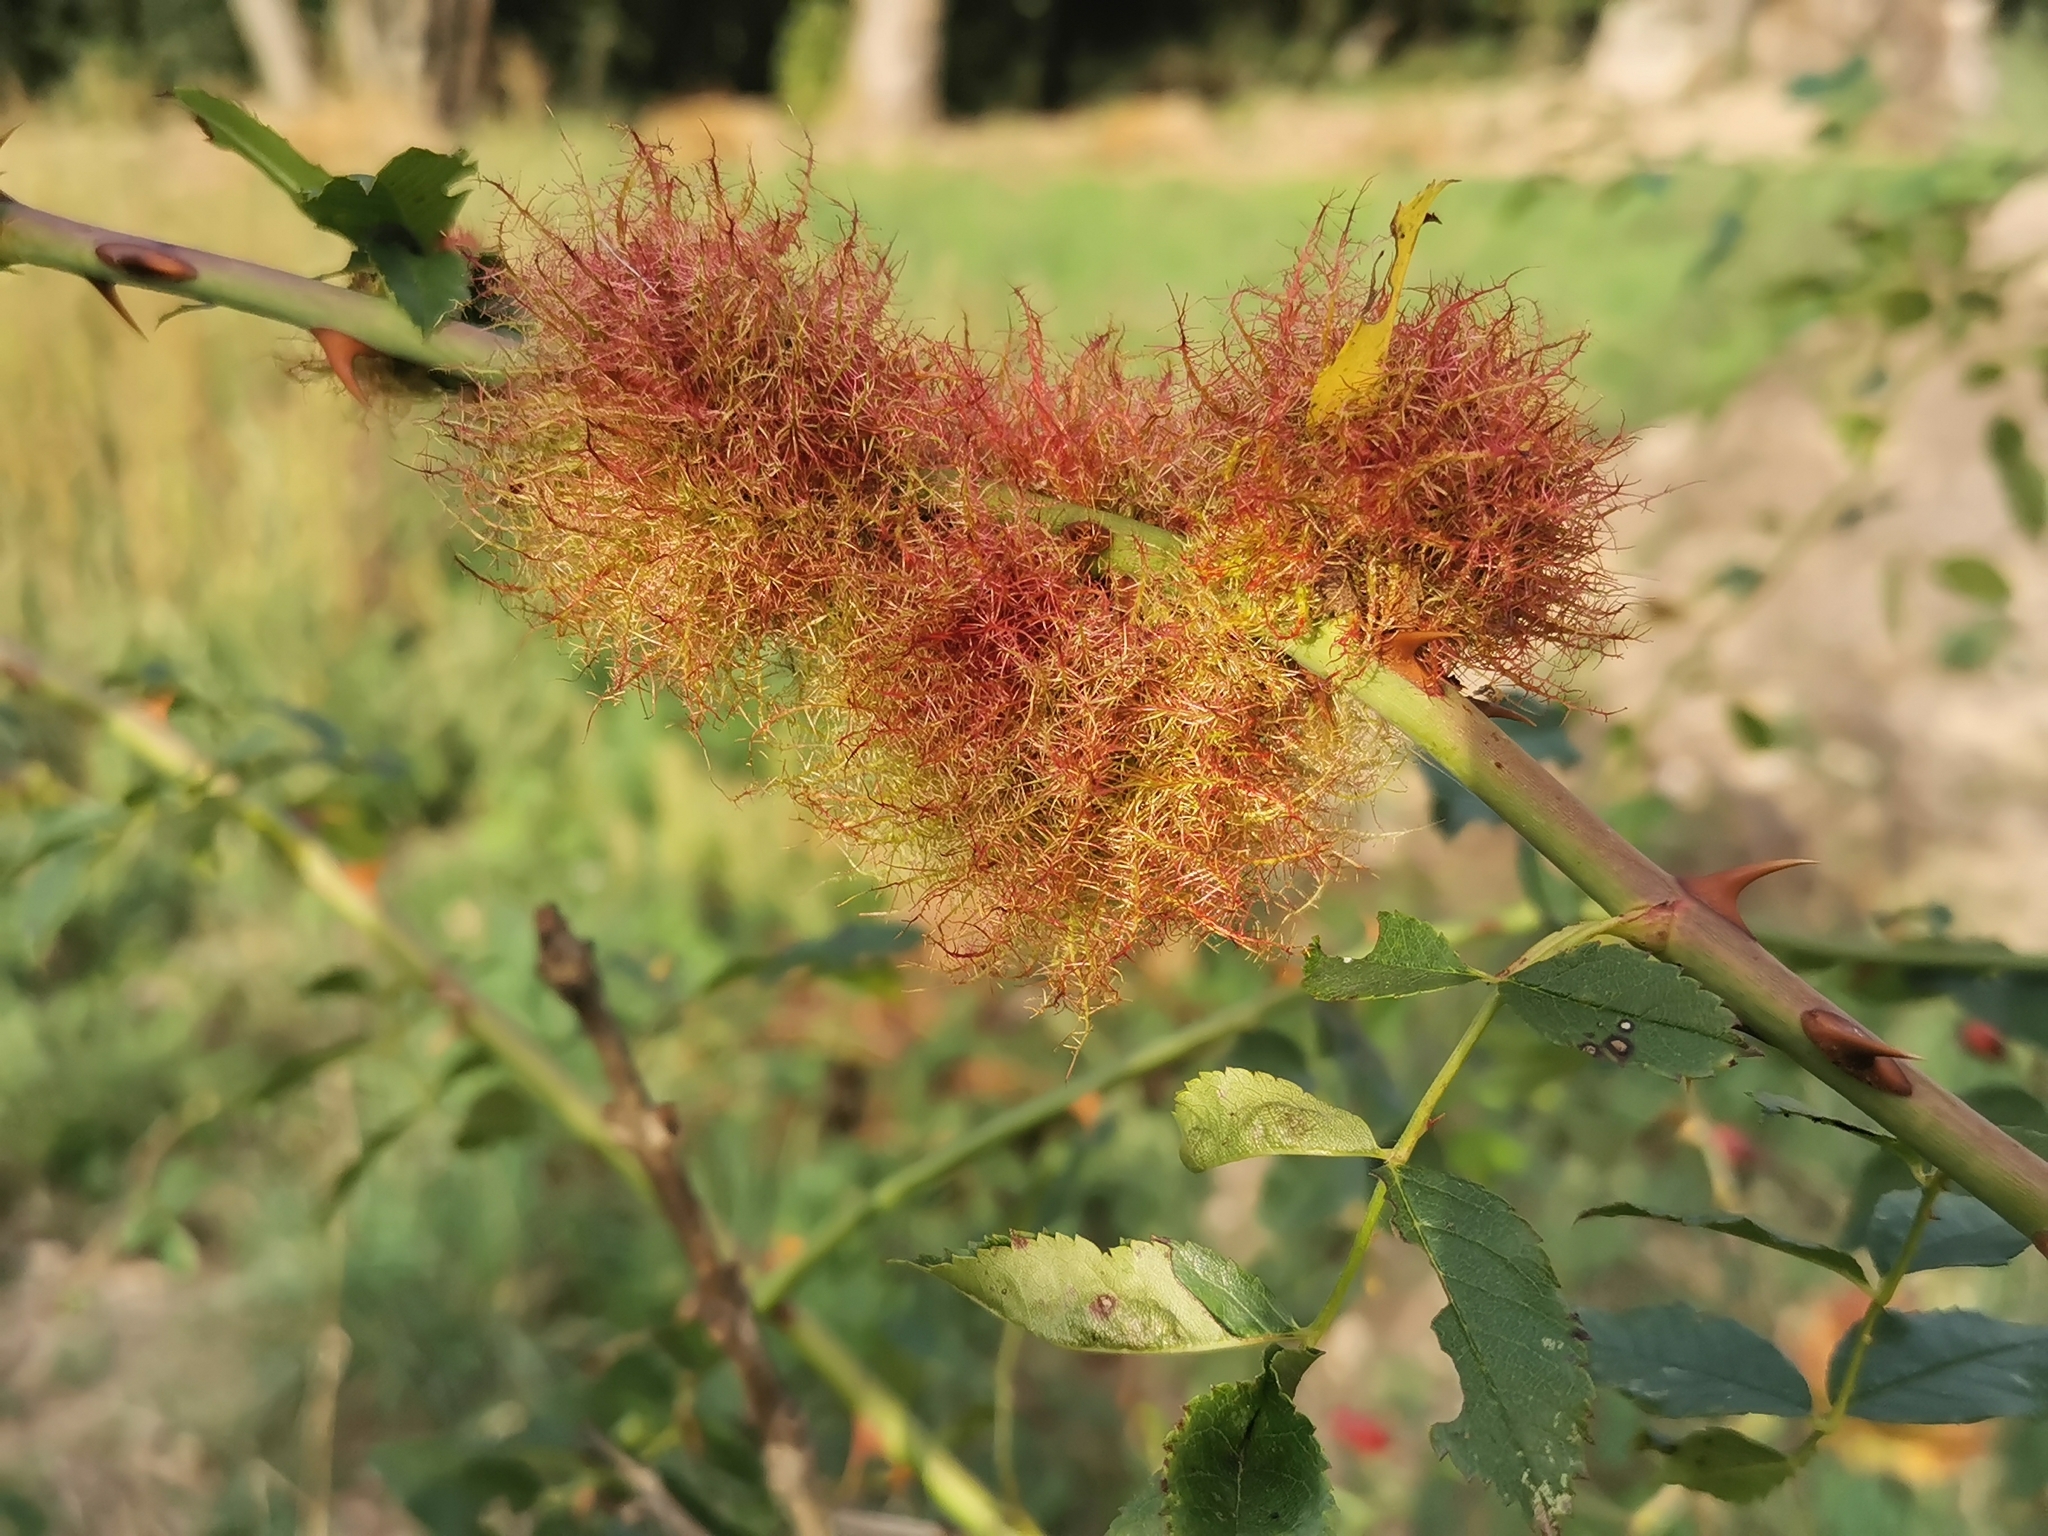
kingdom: Animalia
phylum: Arthropoda
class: Insecta
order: Hymenoptera
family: Cynipidae
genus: Diplolepis
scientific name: Diplolepis rosae
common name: Bedeguar gall
